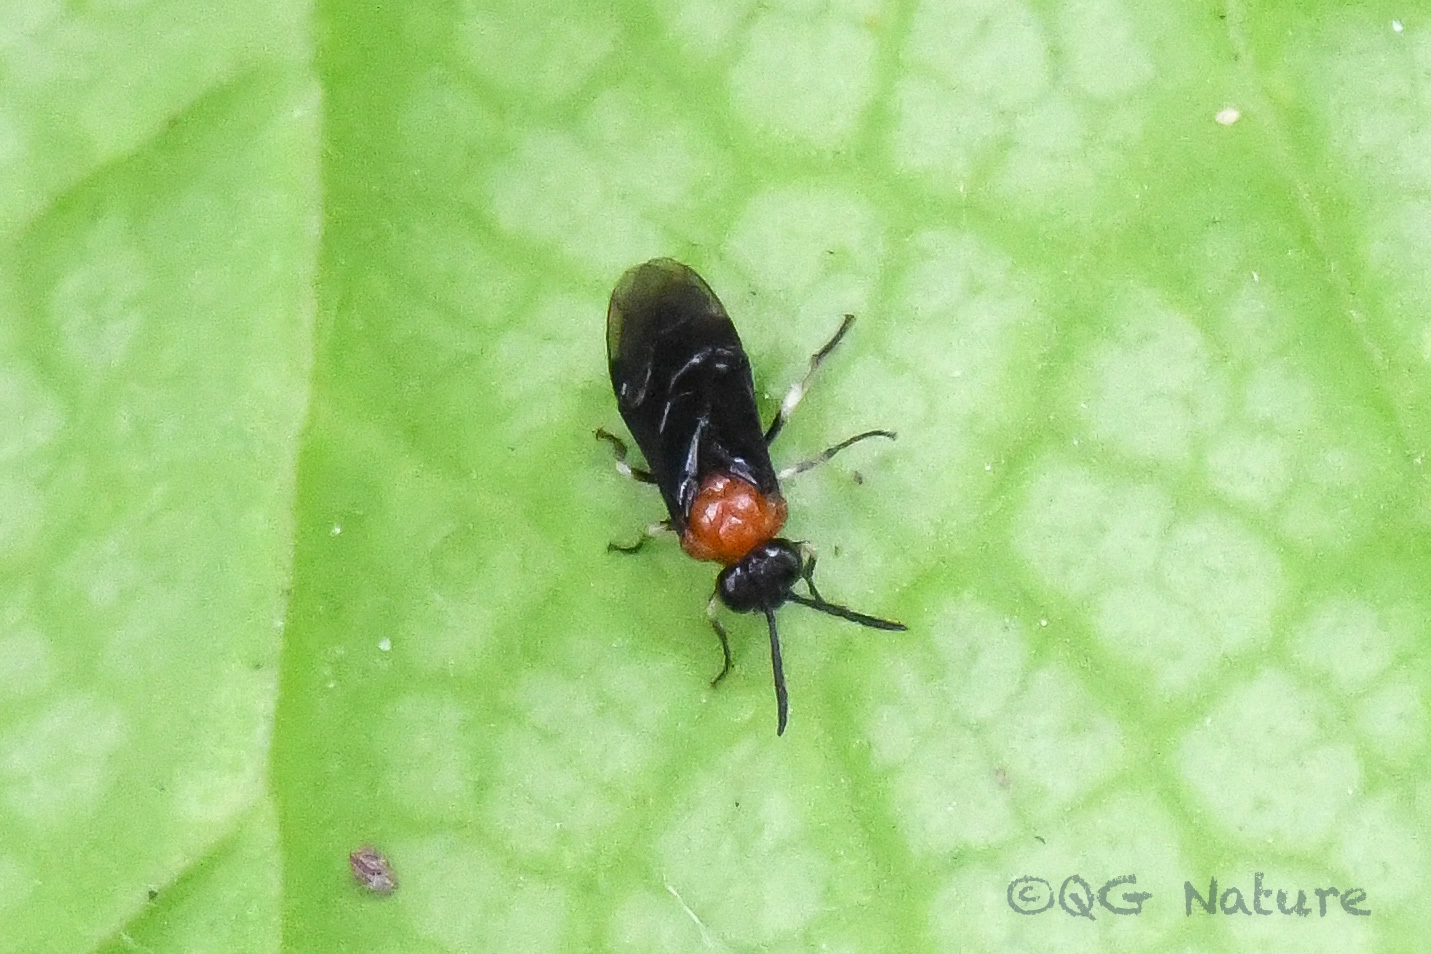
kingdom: Animalia
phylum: Arthropoda
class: Insecta
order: Hymenoptera
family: Tenthredinidae
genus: Moricella
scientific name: Moricella rufonota
